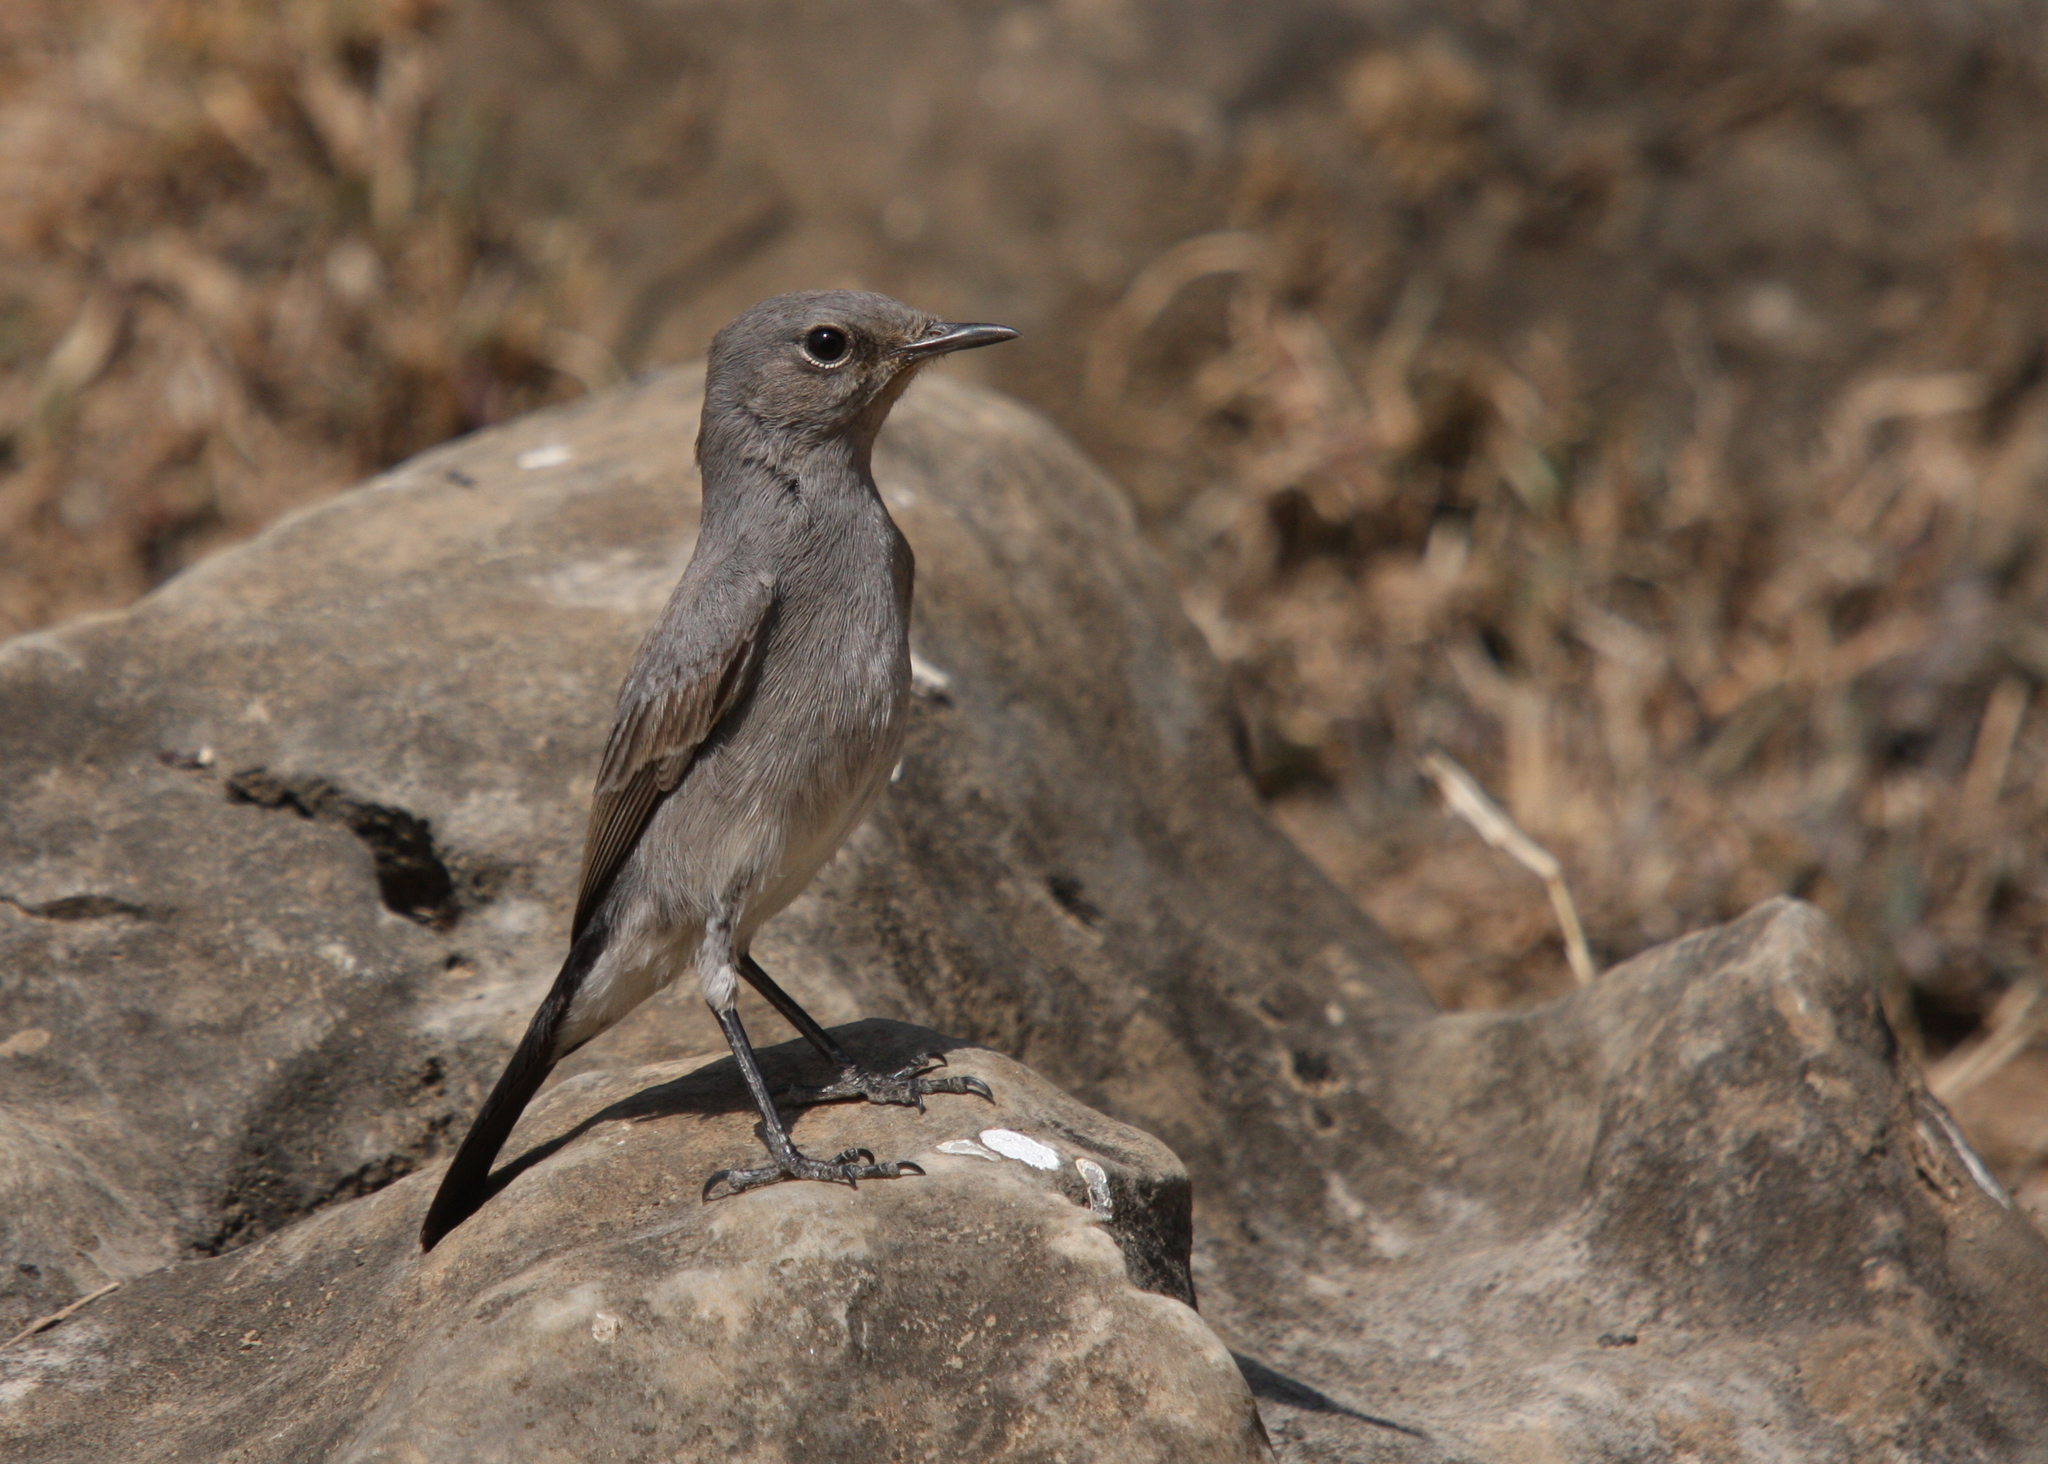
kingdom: Animalia
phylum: Chordata
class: Aves
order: Passeriformes
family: Muscicapidae
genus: Oenanthe
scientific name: Oenanthe melanura
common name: Blackstart
